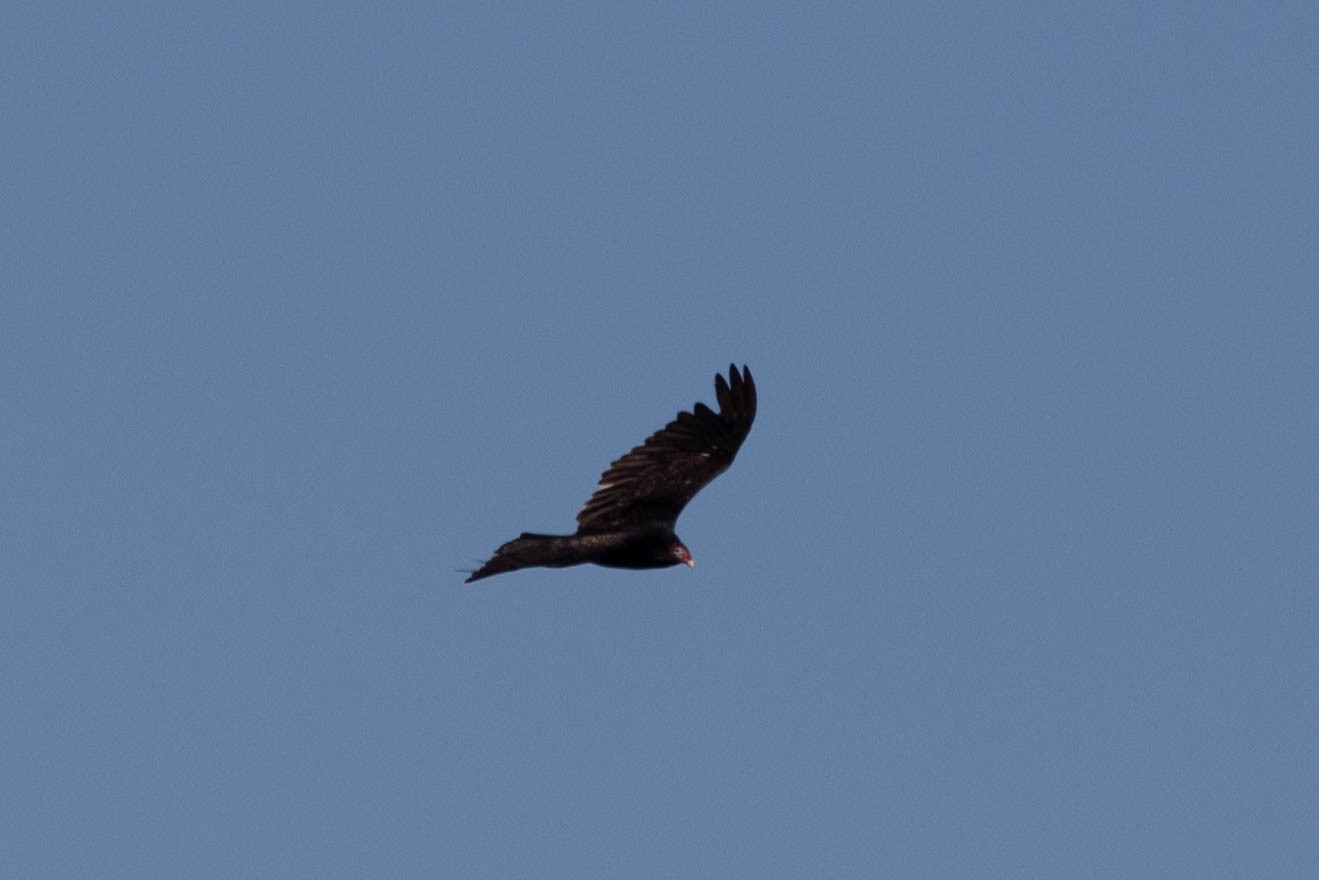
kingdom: Animalia
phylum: Chordata
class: Aves
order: Accipitriformes
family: Cathartidae
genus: Cathartes
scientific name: Cathartes aura
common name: Turkey vulture
